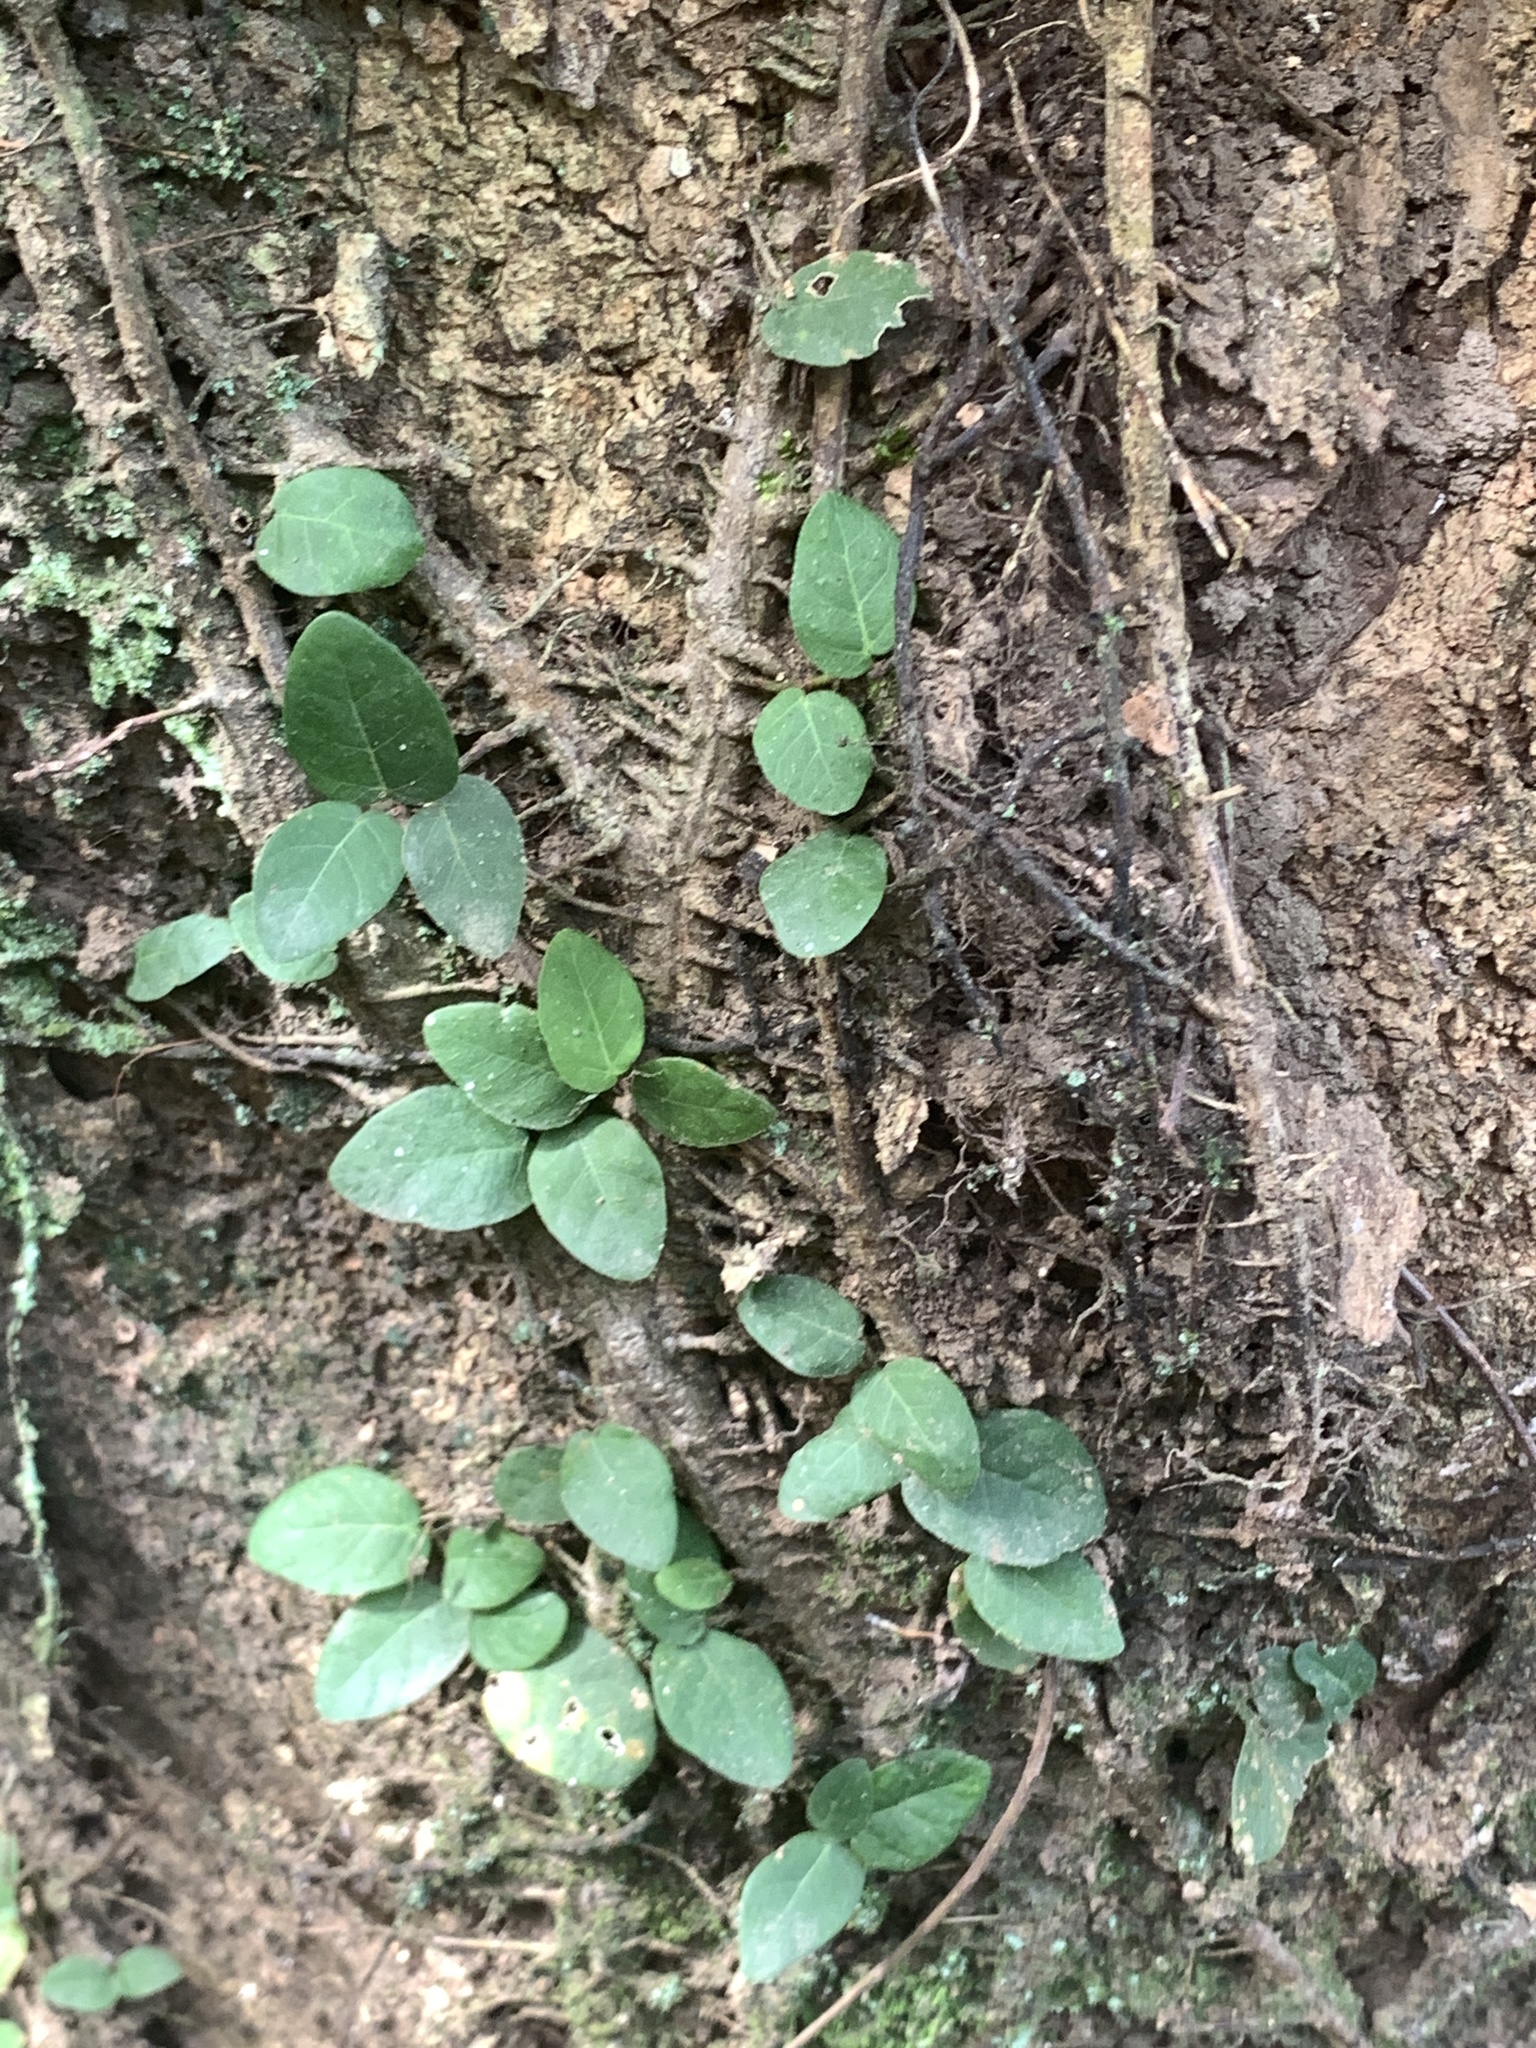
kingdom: Plantae
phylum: Tracheophyta
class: Magnoliopsida
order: Rosales
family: Moraceae
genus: Ficus
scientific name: Ficus pumila
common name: Climbingfig
